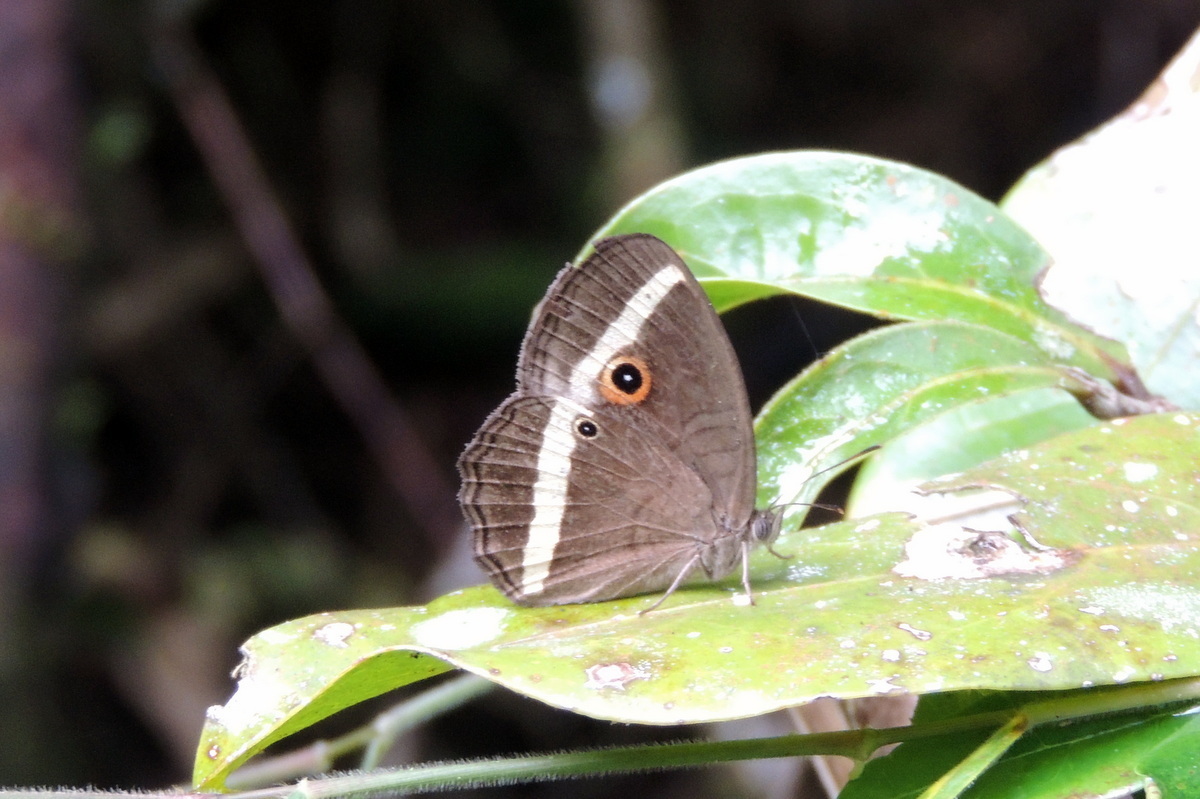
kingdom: Animalia
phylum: Arthropoda
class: Insecta
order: Lepidoptera
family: Nymphalidae
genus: Heteropsis
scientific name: Heteropsis vola
